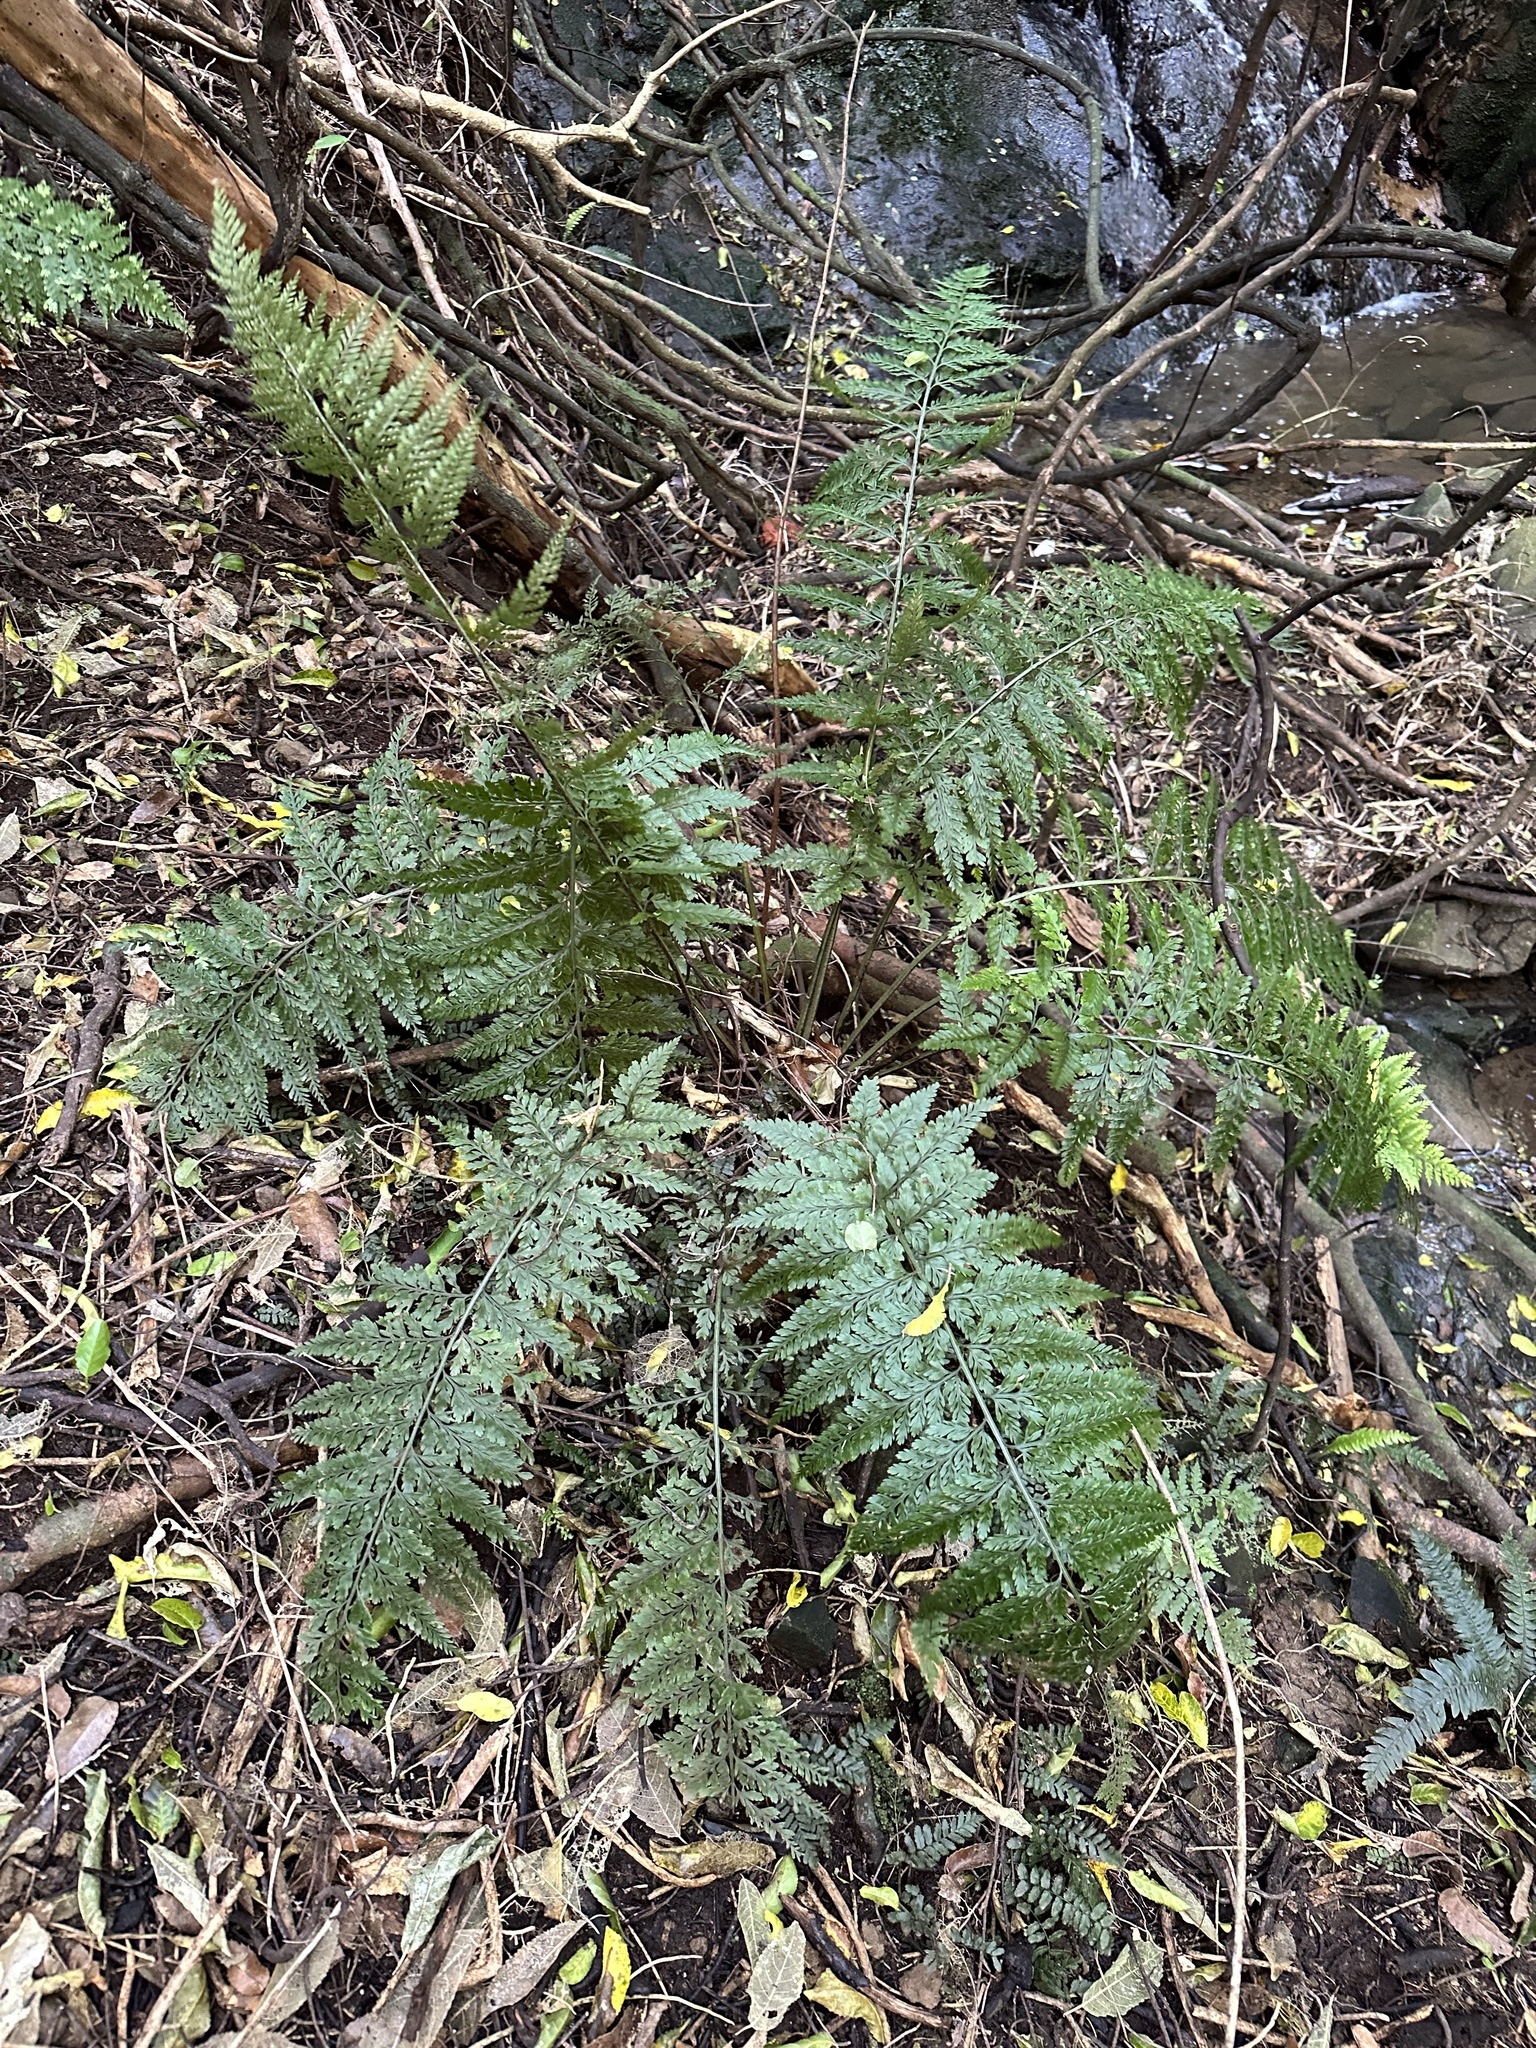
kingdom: Plantae
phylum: Tracheophyta
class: Polypodiopsida
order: Polypodiales
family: Aspleniaceae
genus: Asplenium
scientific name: Asplenium bulbiferum
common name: Mother fern
